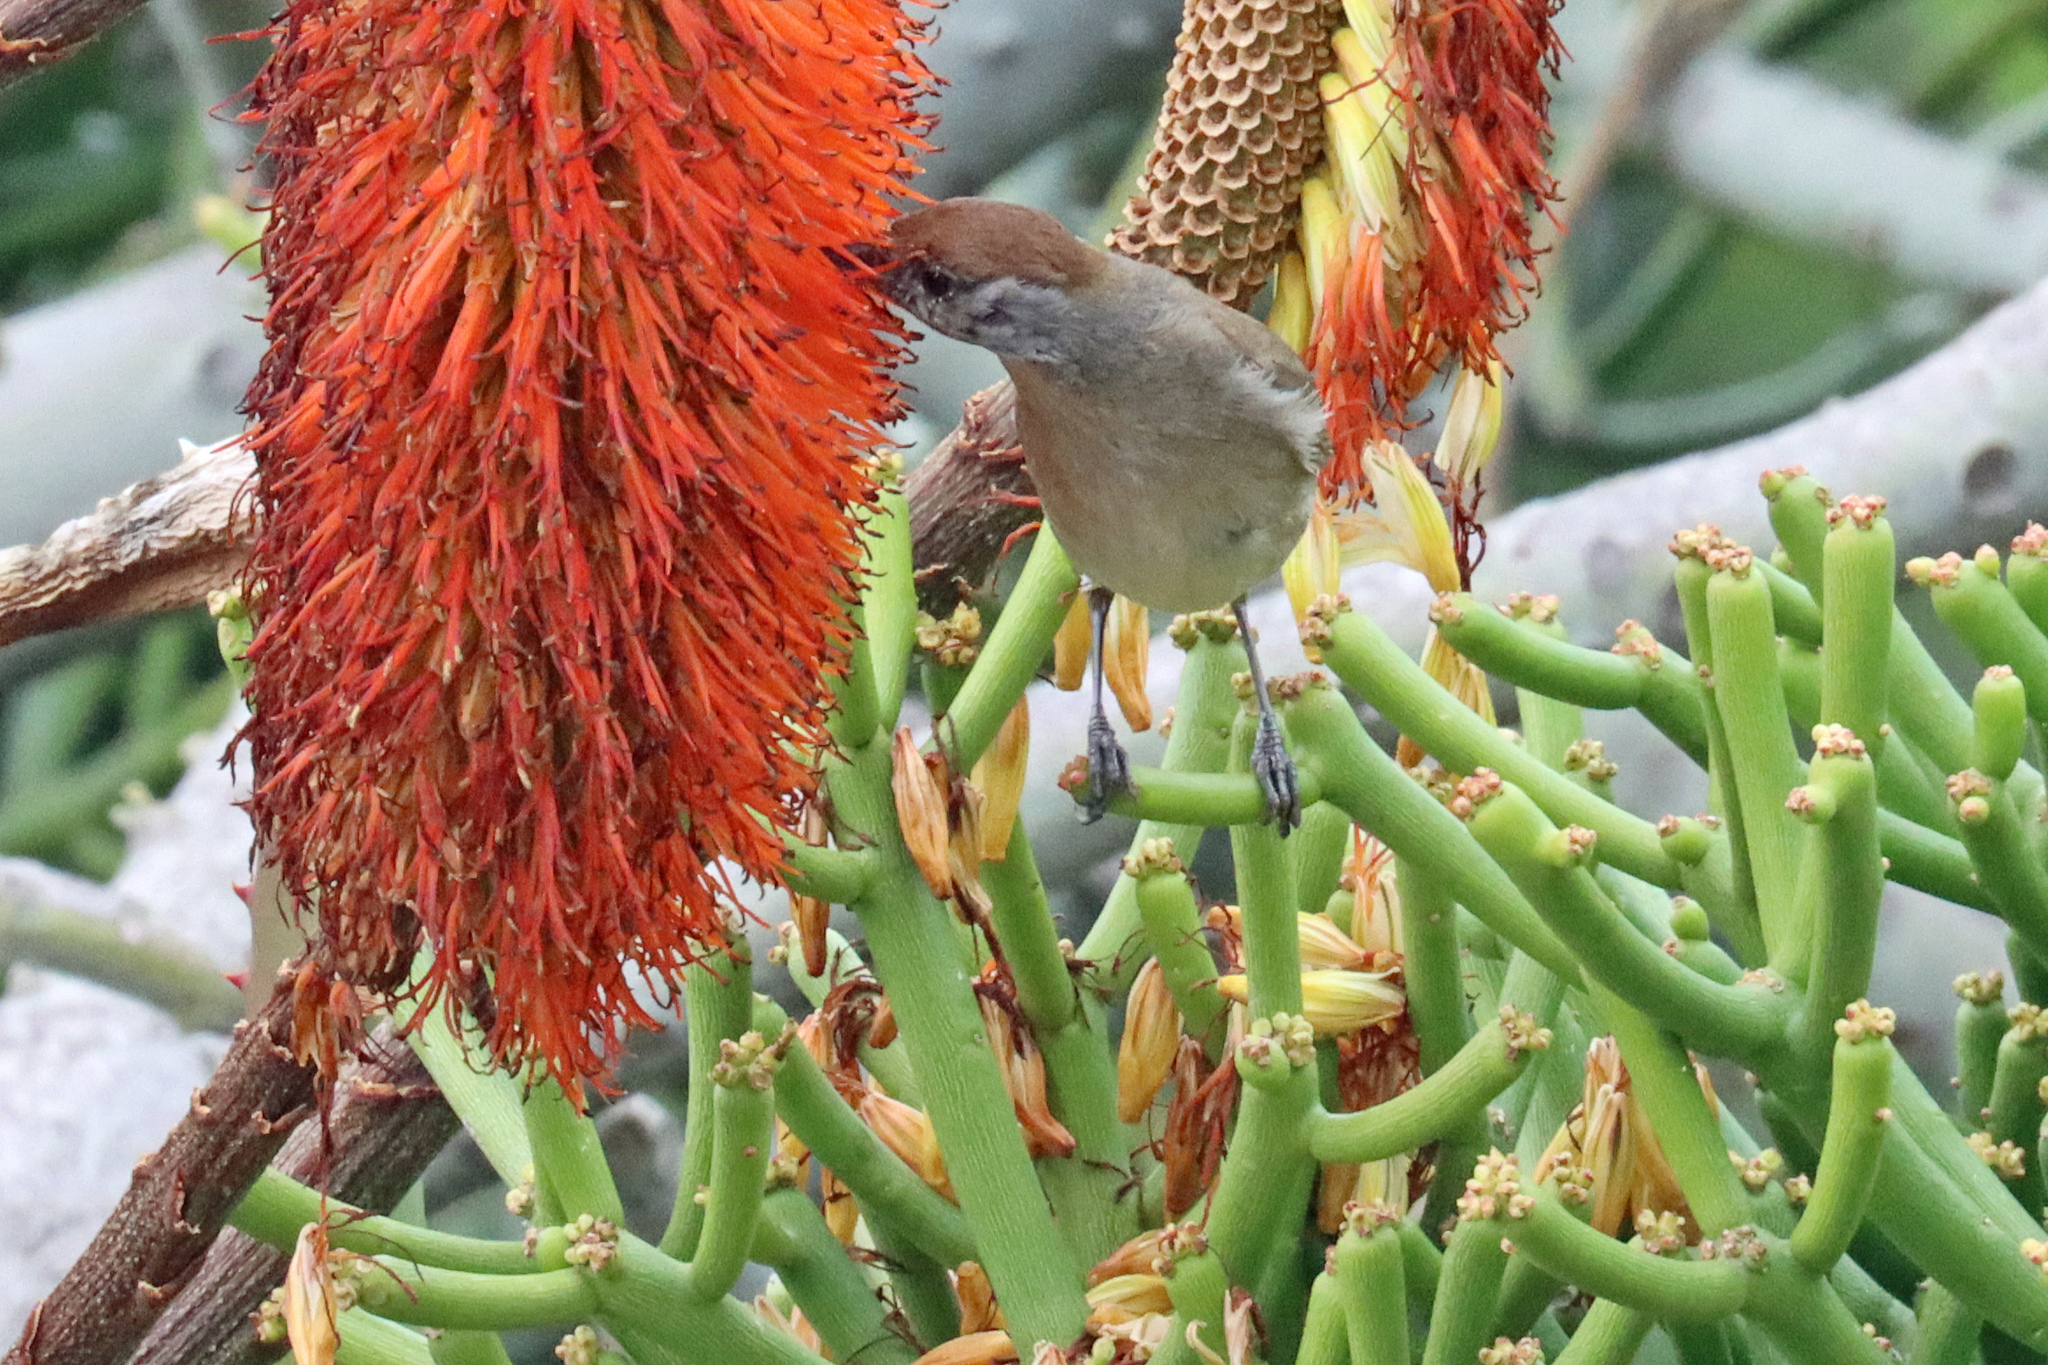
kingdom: Animalia
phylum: Chordata
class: Aves
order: Passeriformes
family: Sylviidae
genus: Sylvia
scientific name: Sylvia atricapilla
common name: Eurasian blackcap
